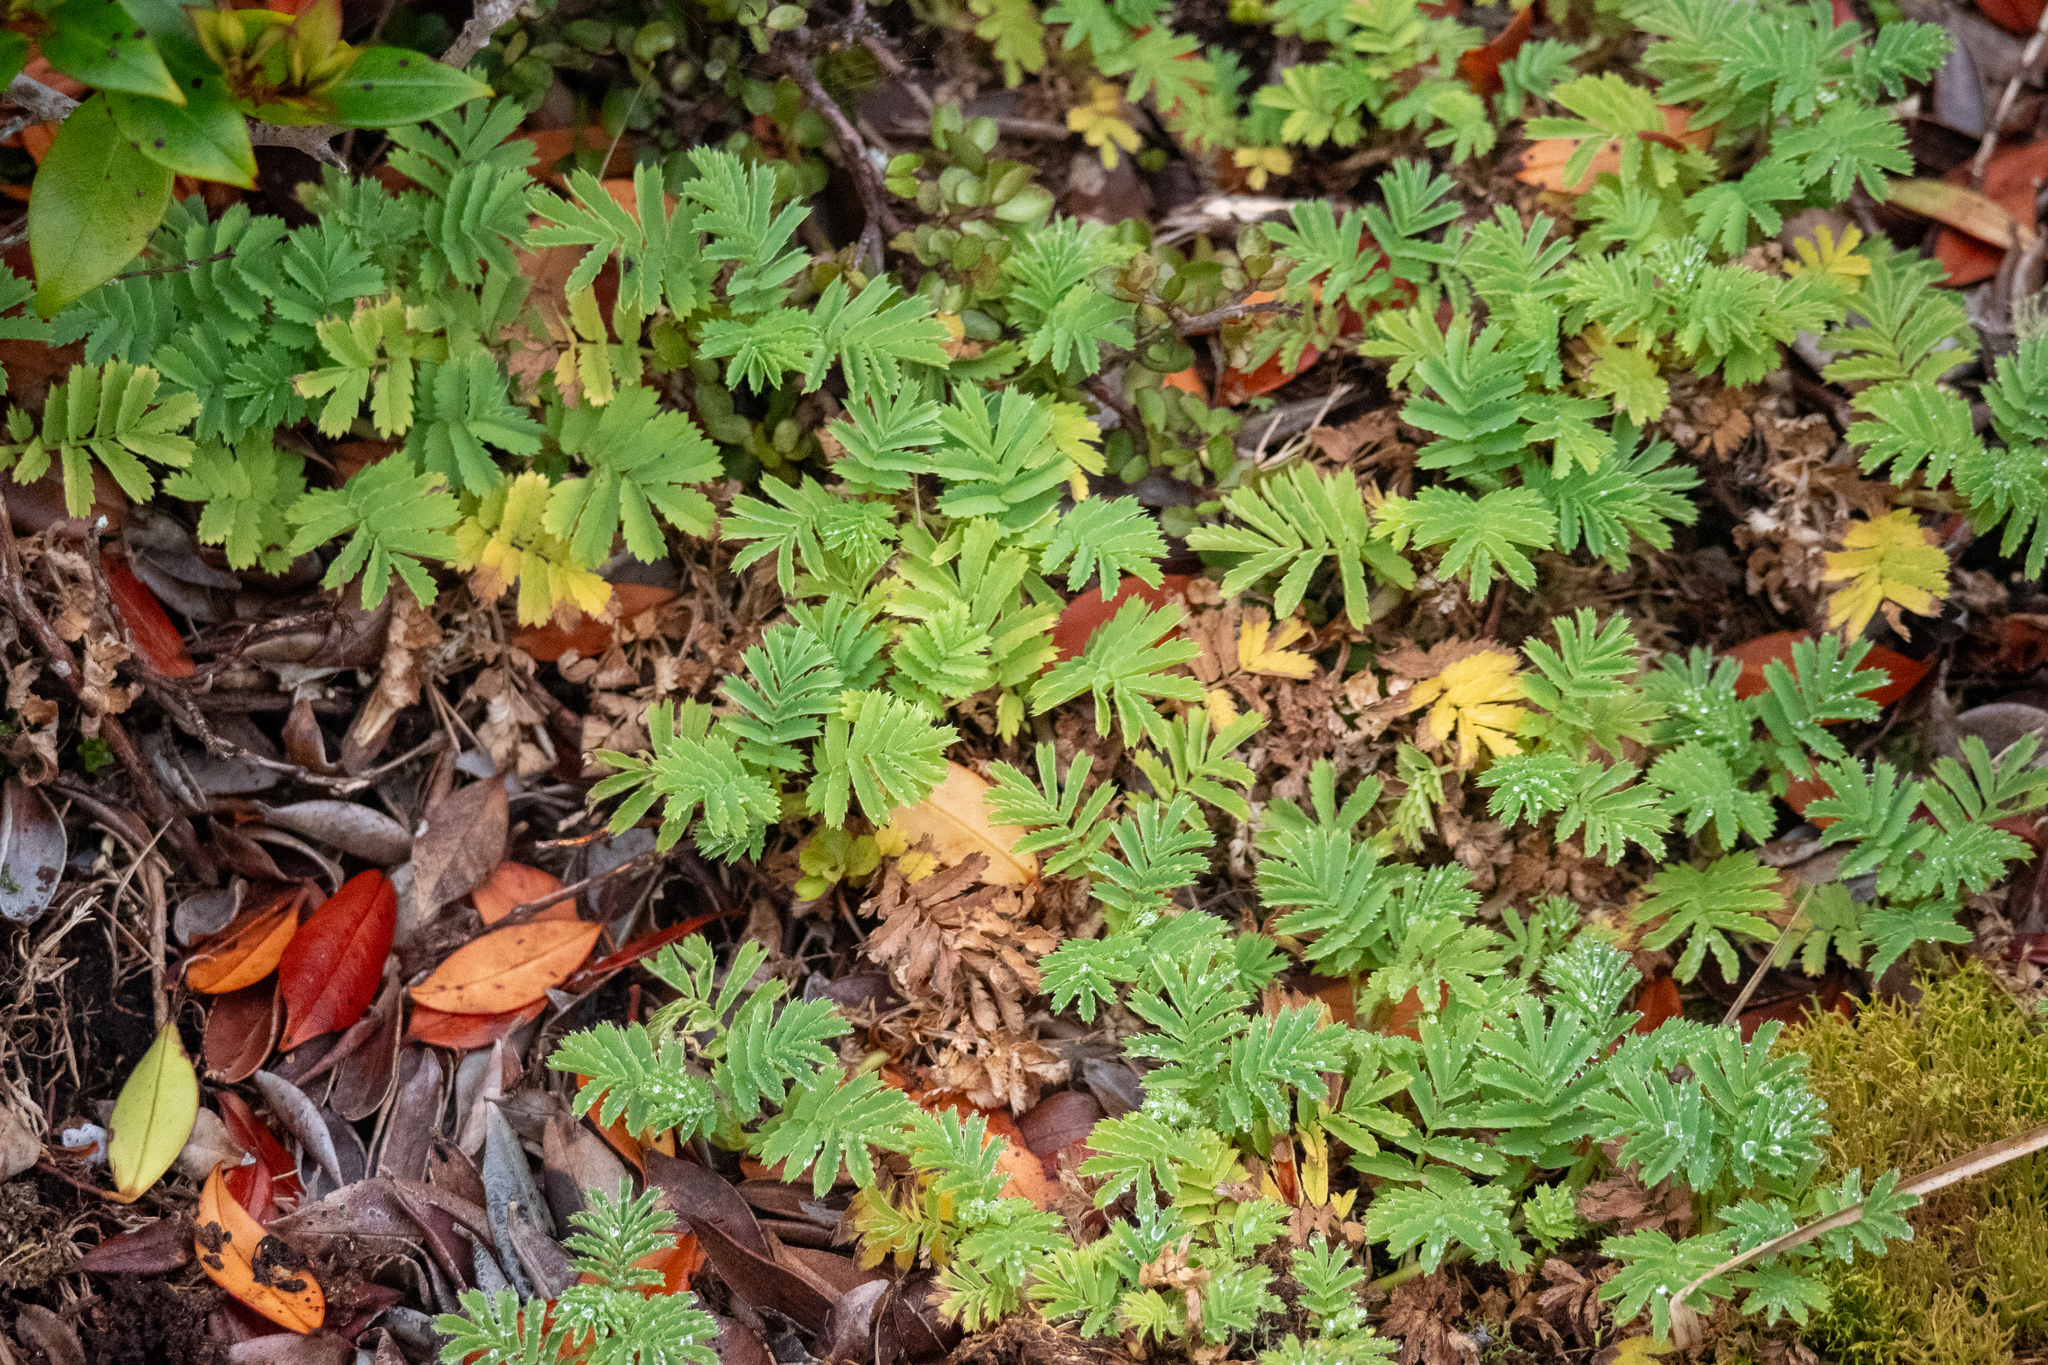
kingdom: Plantae
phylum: Tracheophyta
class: Magnoliopsida
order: Rosales
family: Rosaceae
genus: Acaena
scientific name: Acaena minor
